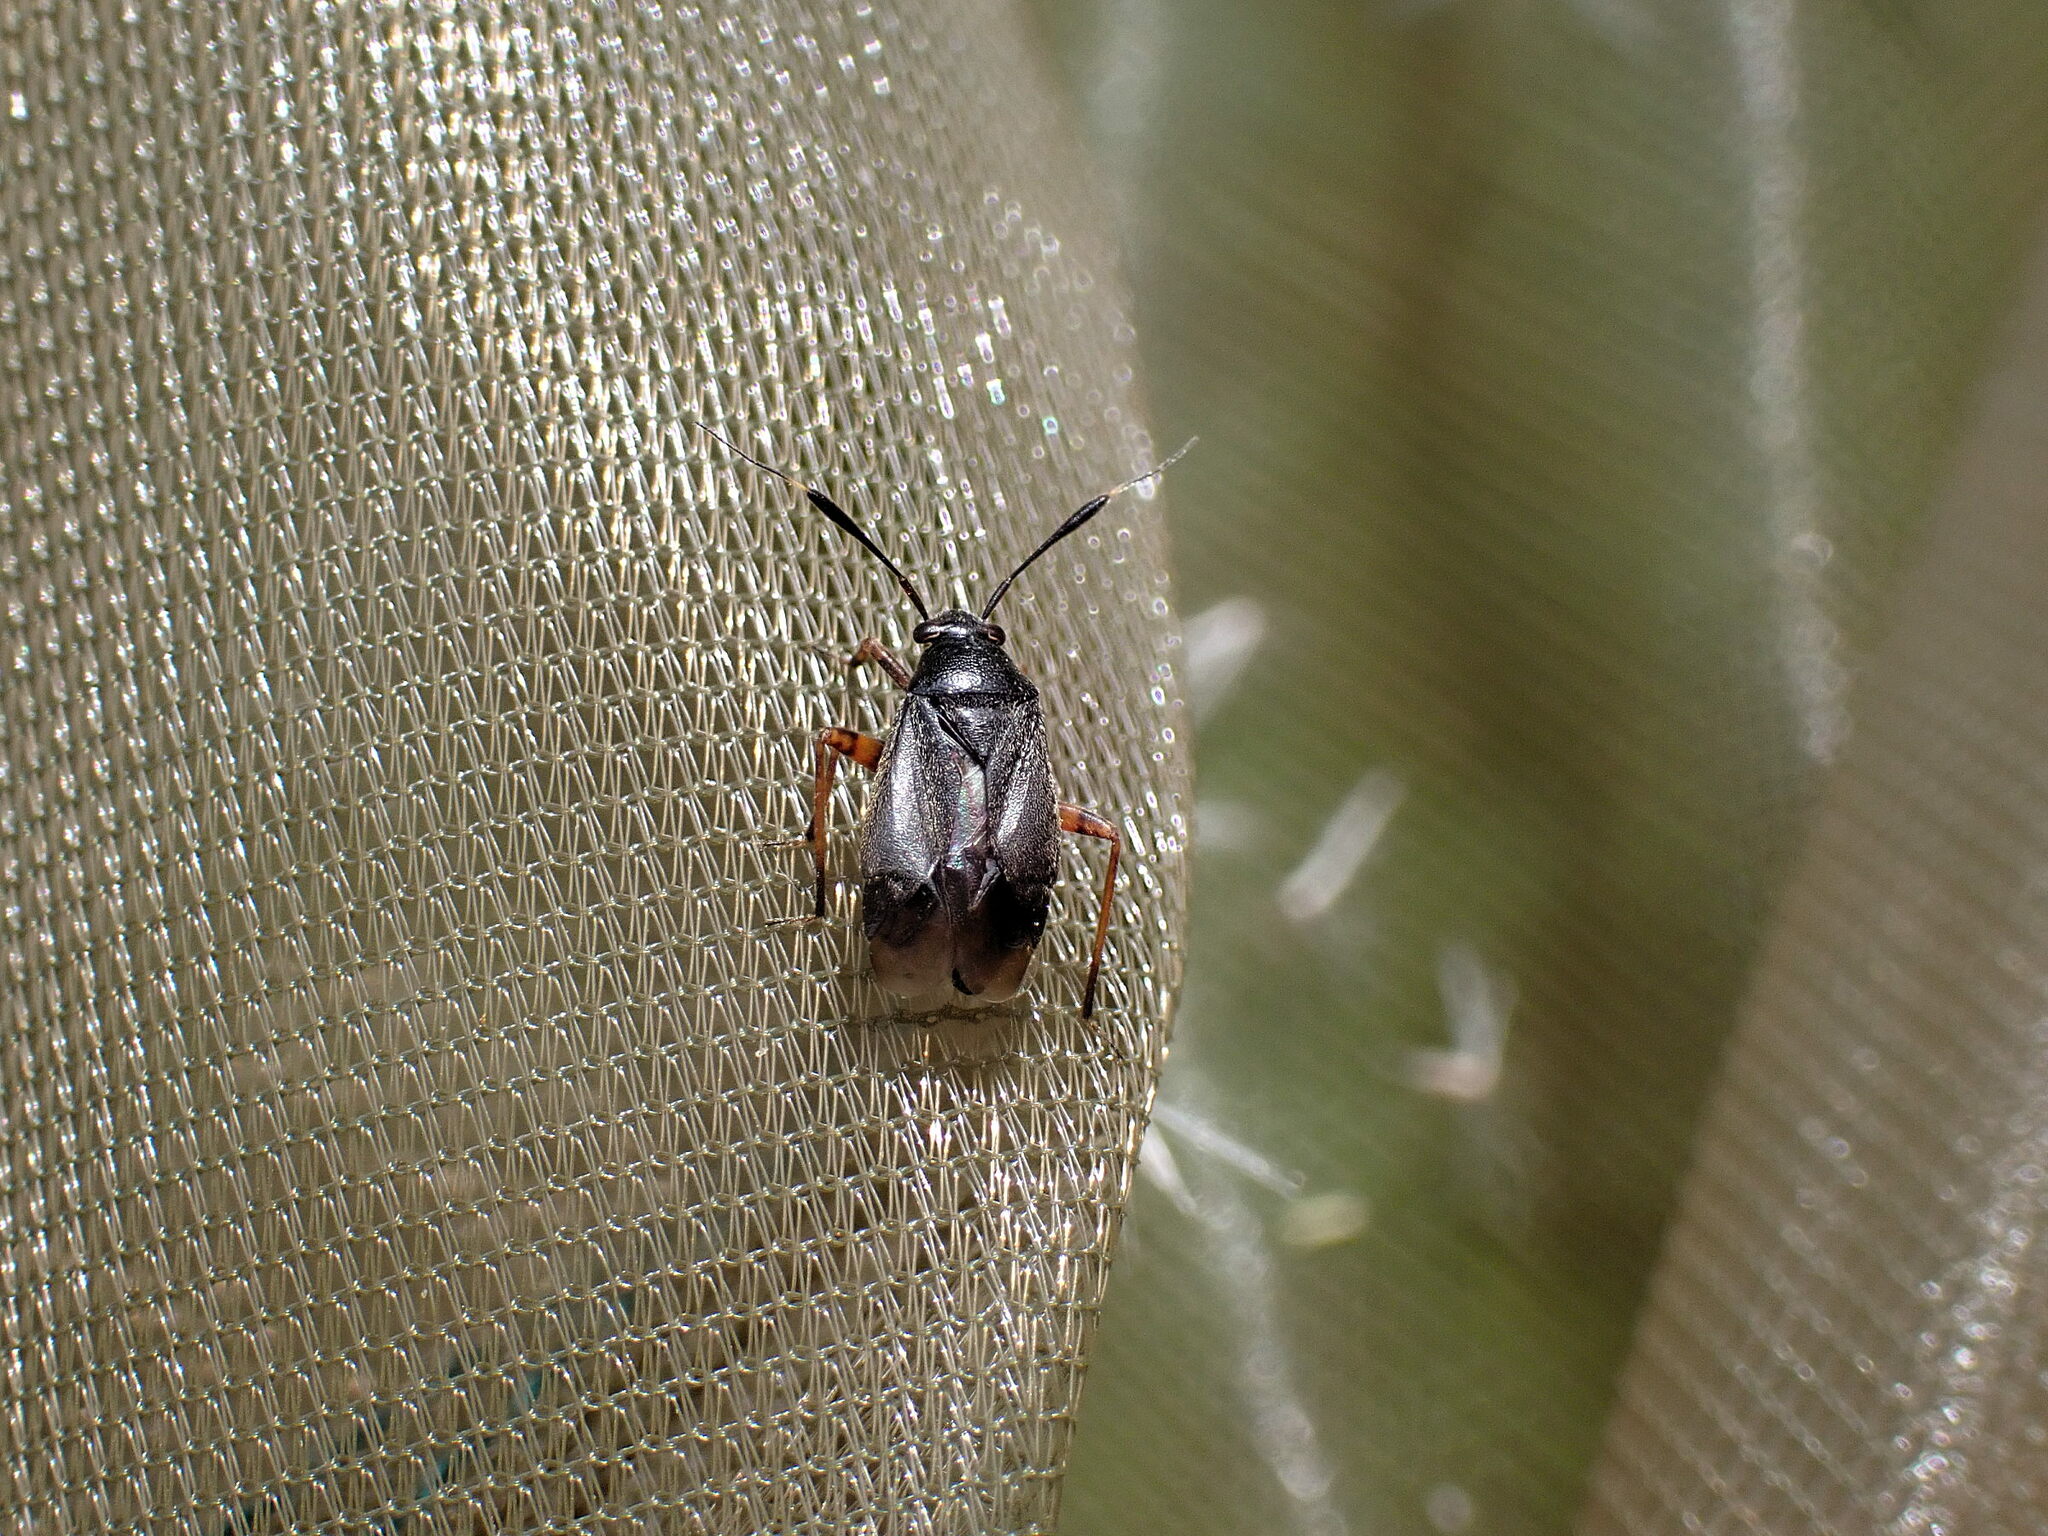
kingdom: Animalia
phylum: Arthropoda
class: Insecta
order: Hemiptera
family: Miridae
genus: Capsus
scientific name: Capsus ater
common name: Black plant bug
